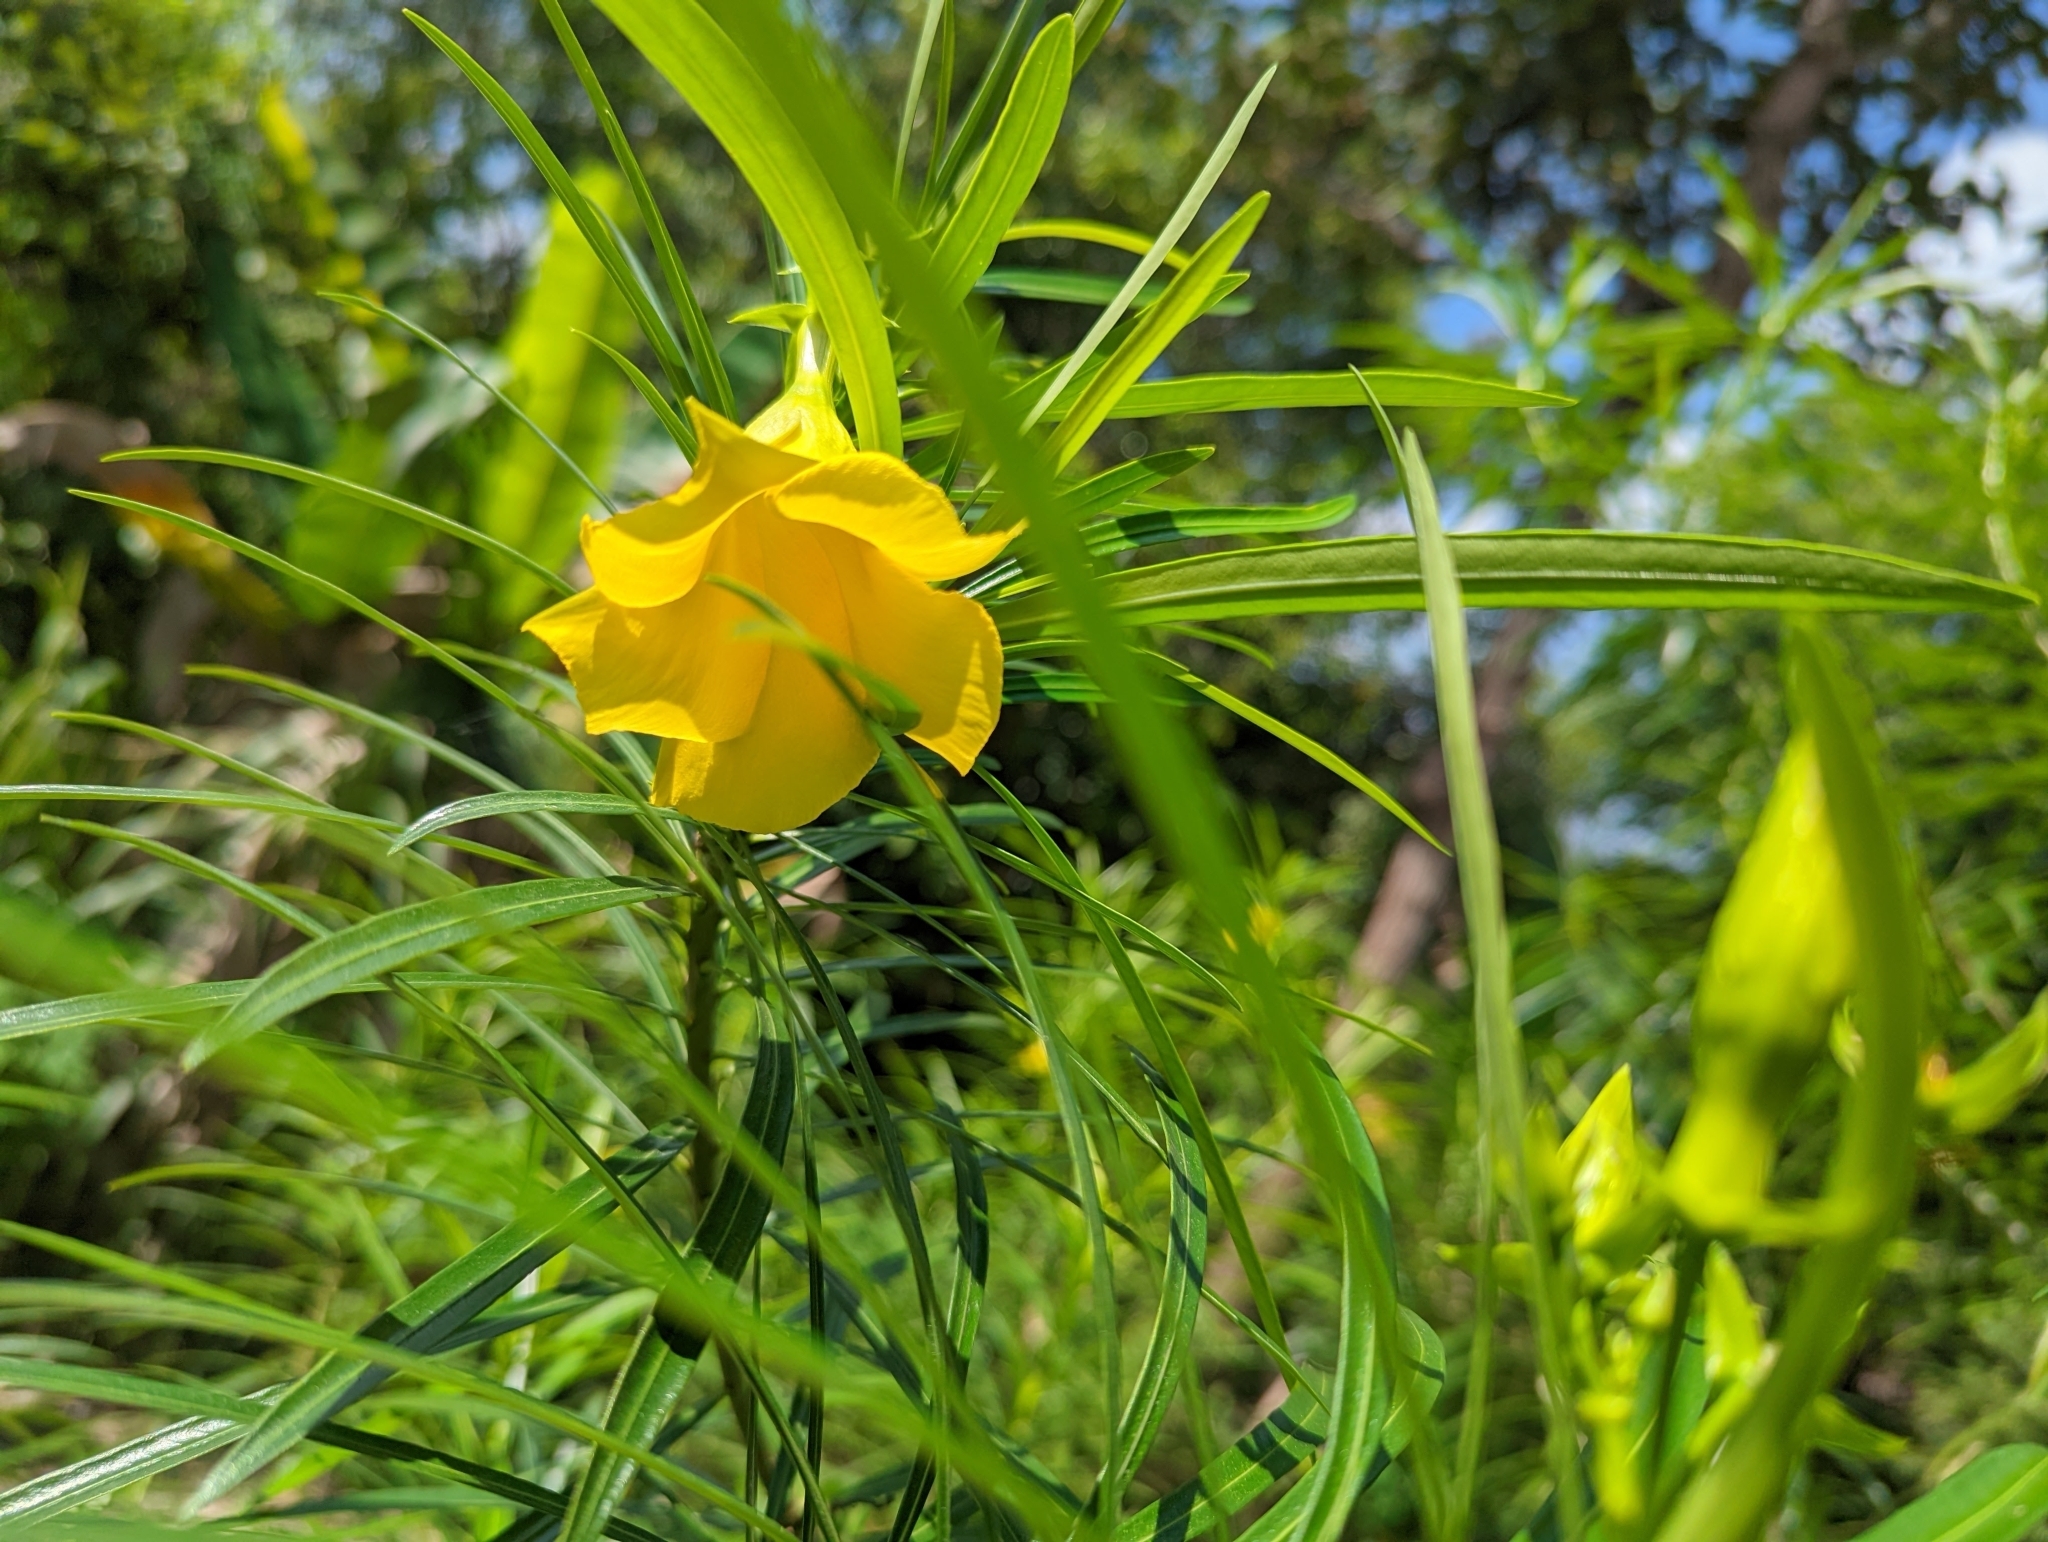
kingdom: Plantae
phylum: Tracheophyta
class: Magnoliopsida
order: Gentianales
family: Apocynaceae
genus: Cascabela
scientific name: Cascabela thevetia
